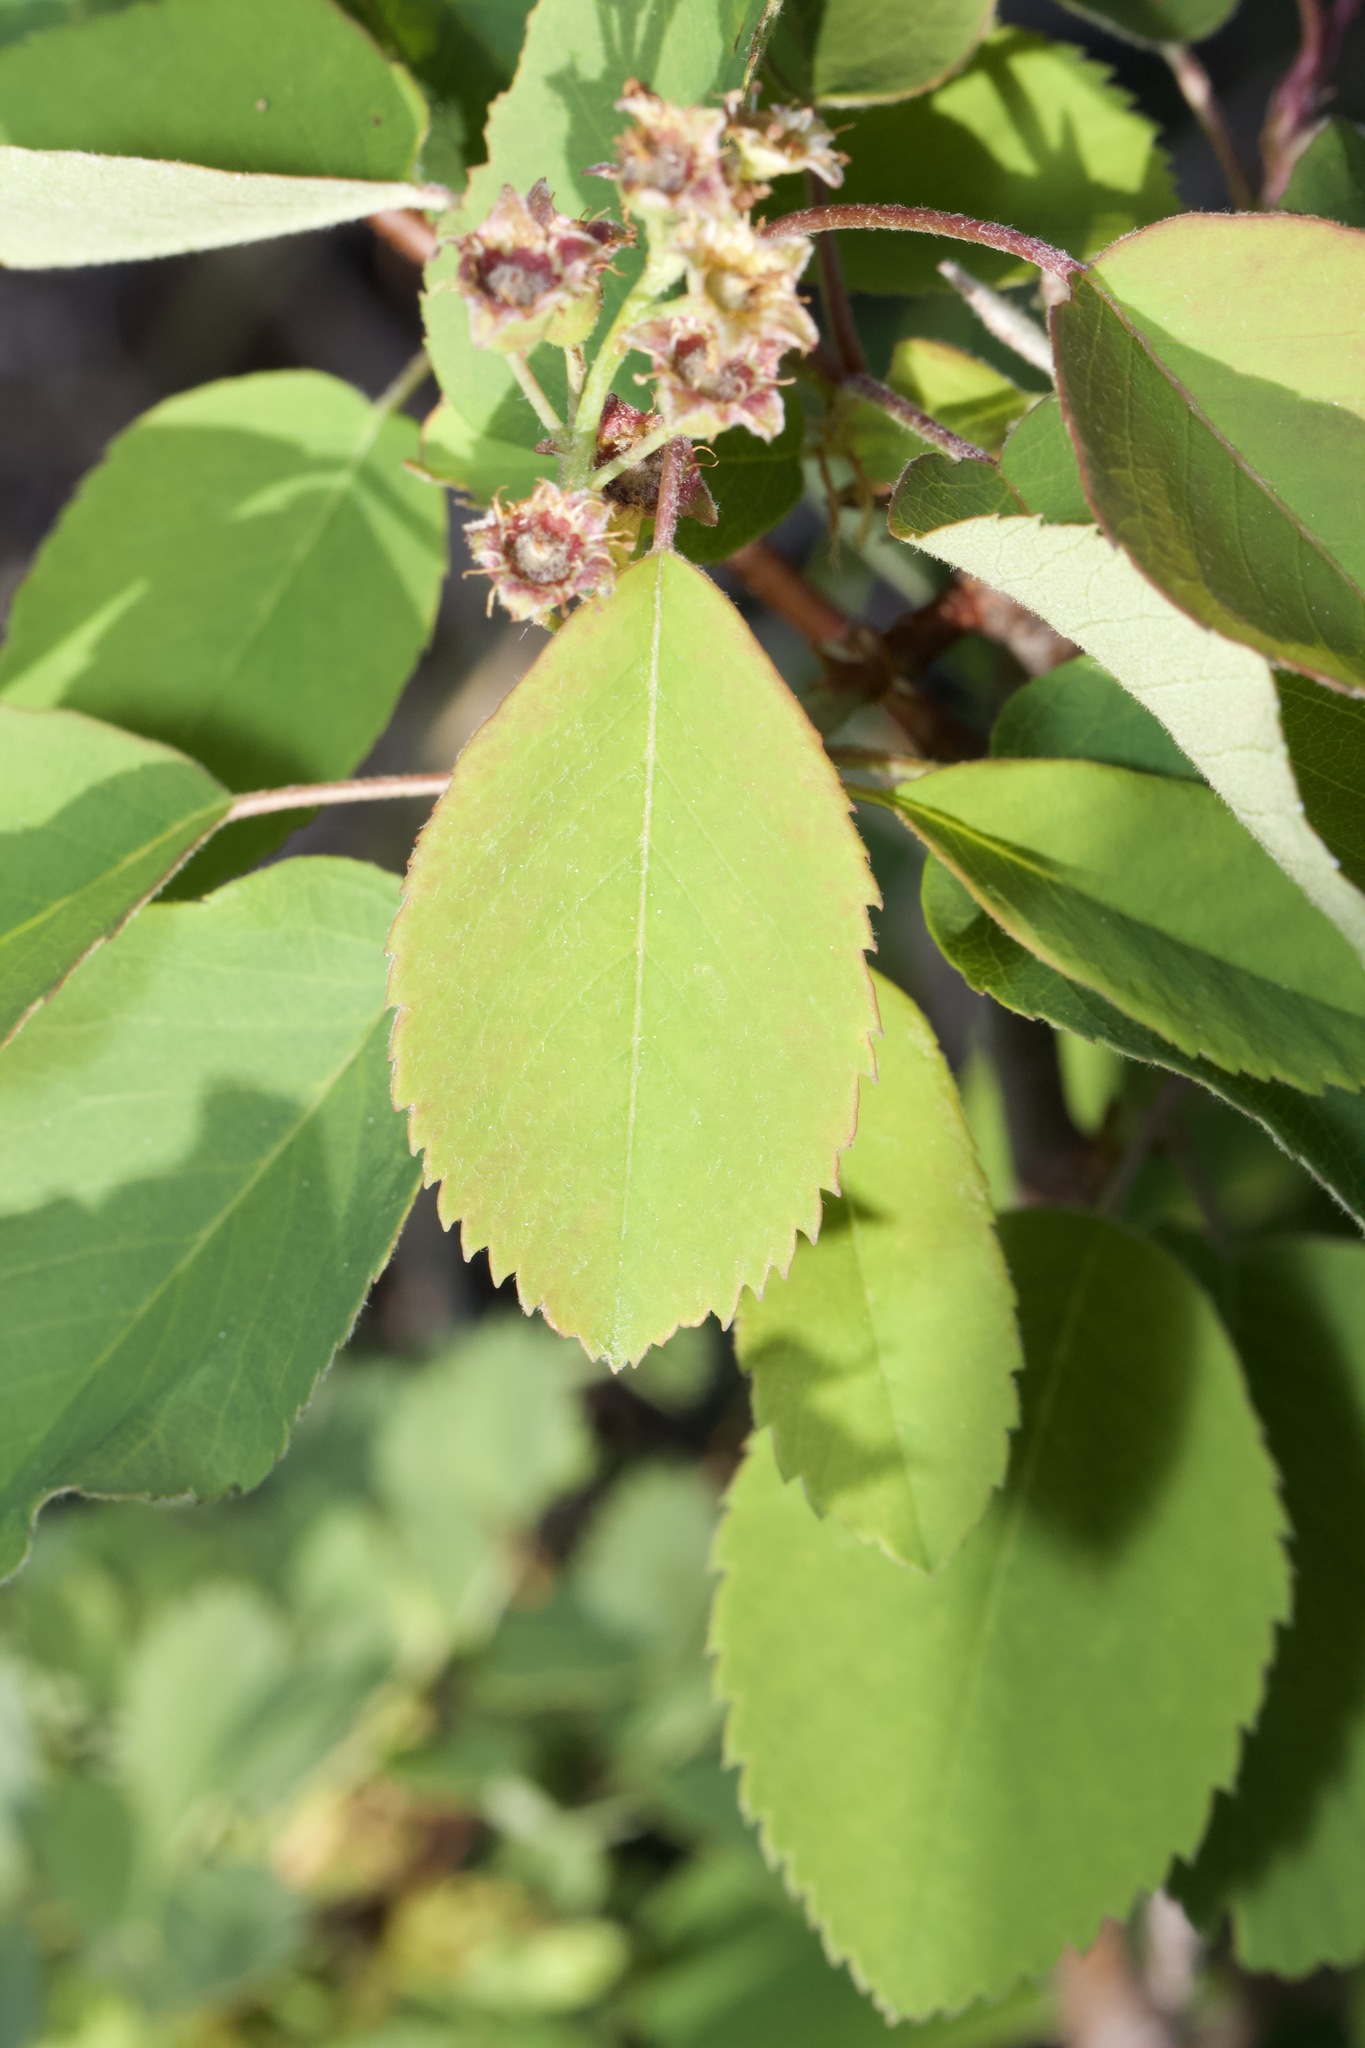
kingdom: Plantae
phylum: Tracheophyta
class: Magnoliopsida
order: Rosales
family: Rosaceae
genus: Amelanchier
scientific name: Amelanchier alnifolia
